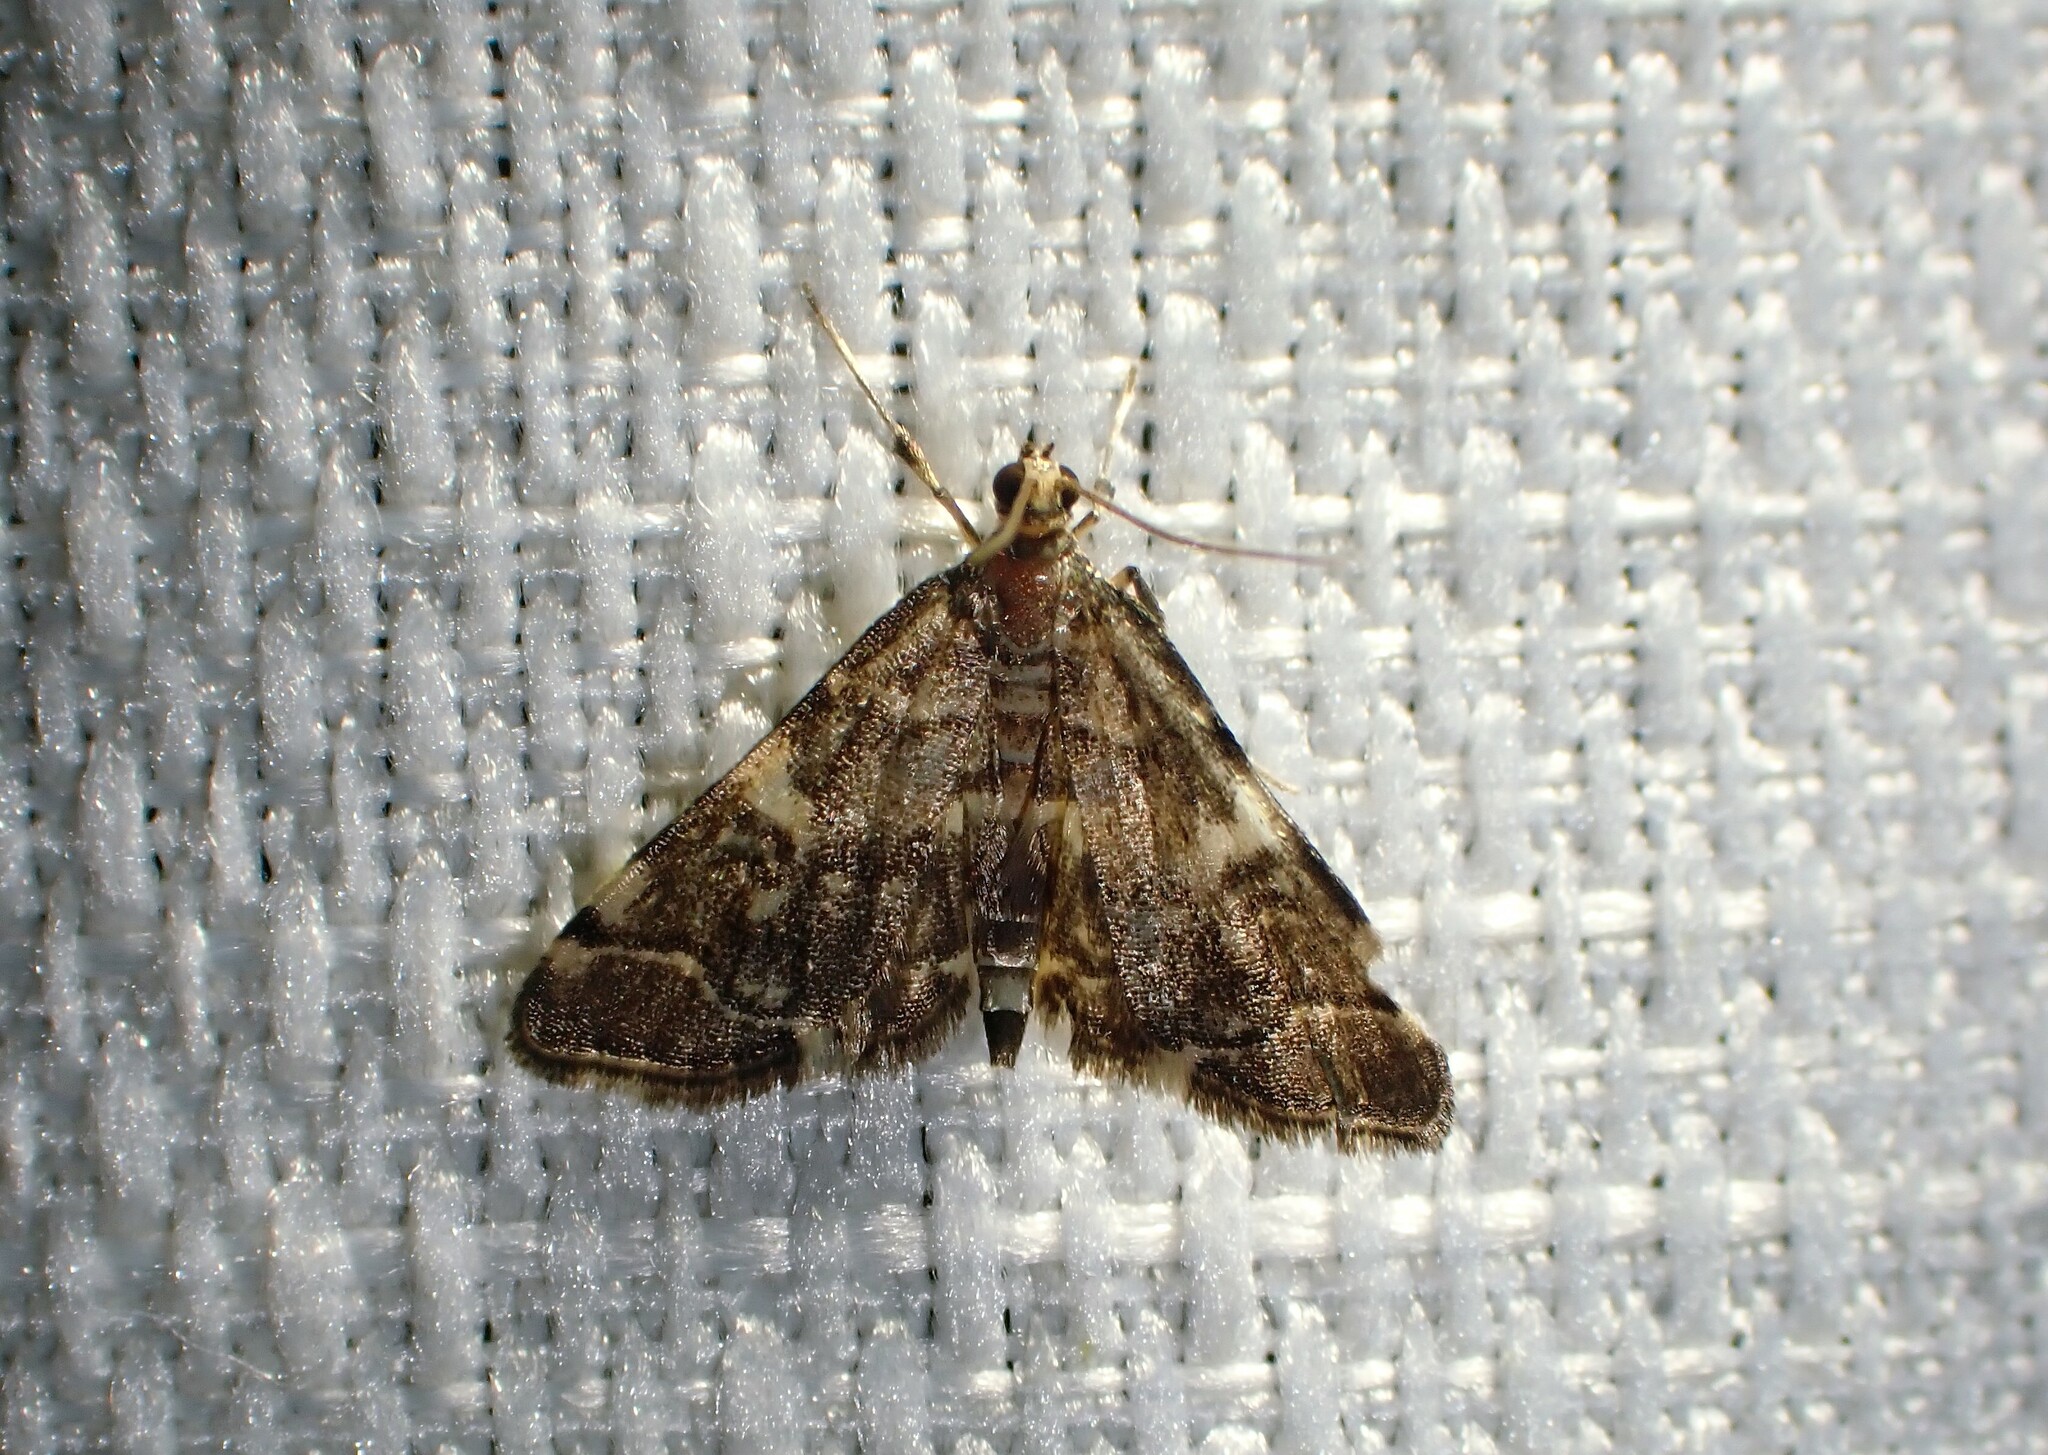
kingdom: Animalia
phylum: Arthropoda
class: Insecta
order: Lepidoptera
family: Crambidae
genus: Anageshna
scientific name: Anageshna primordialis
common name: Yellow-spotted webworm moth
